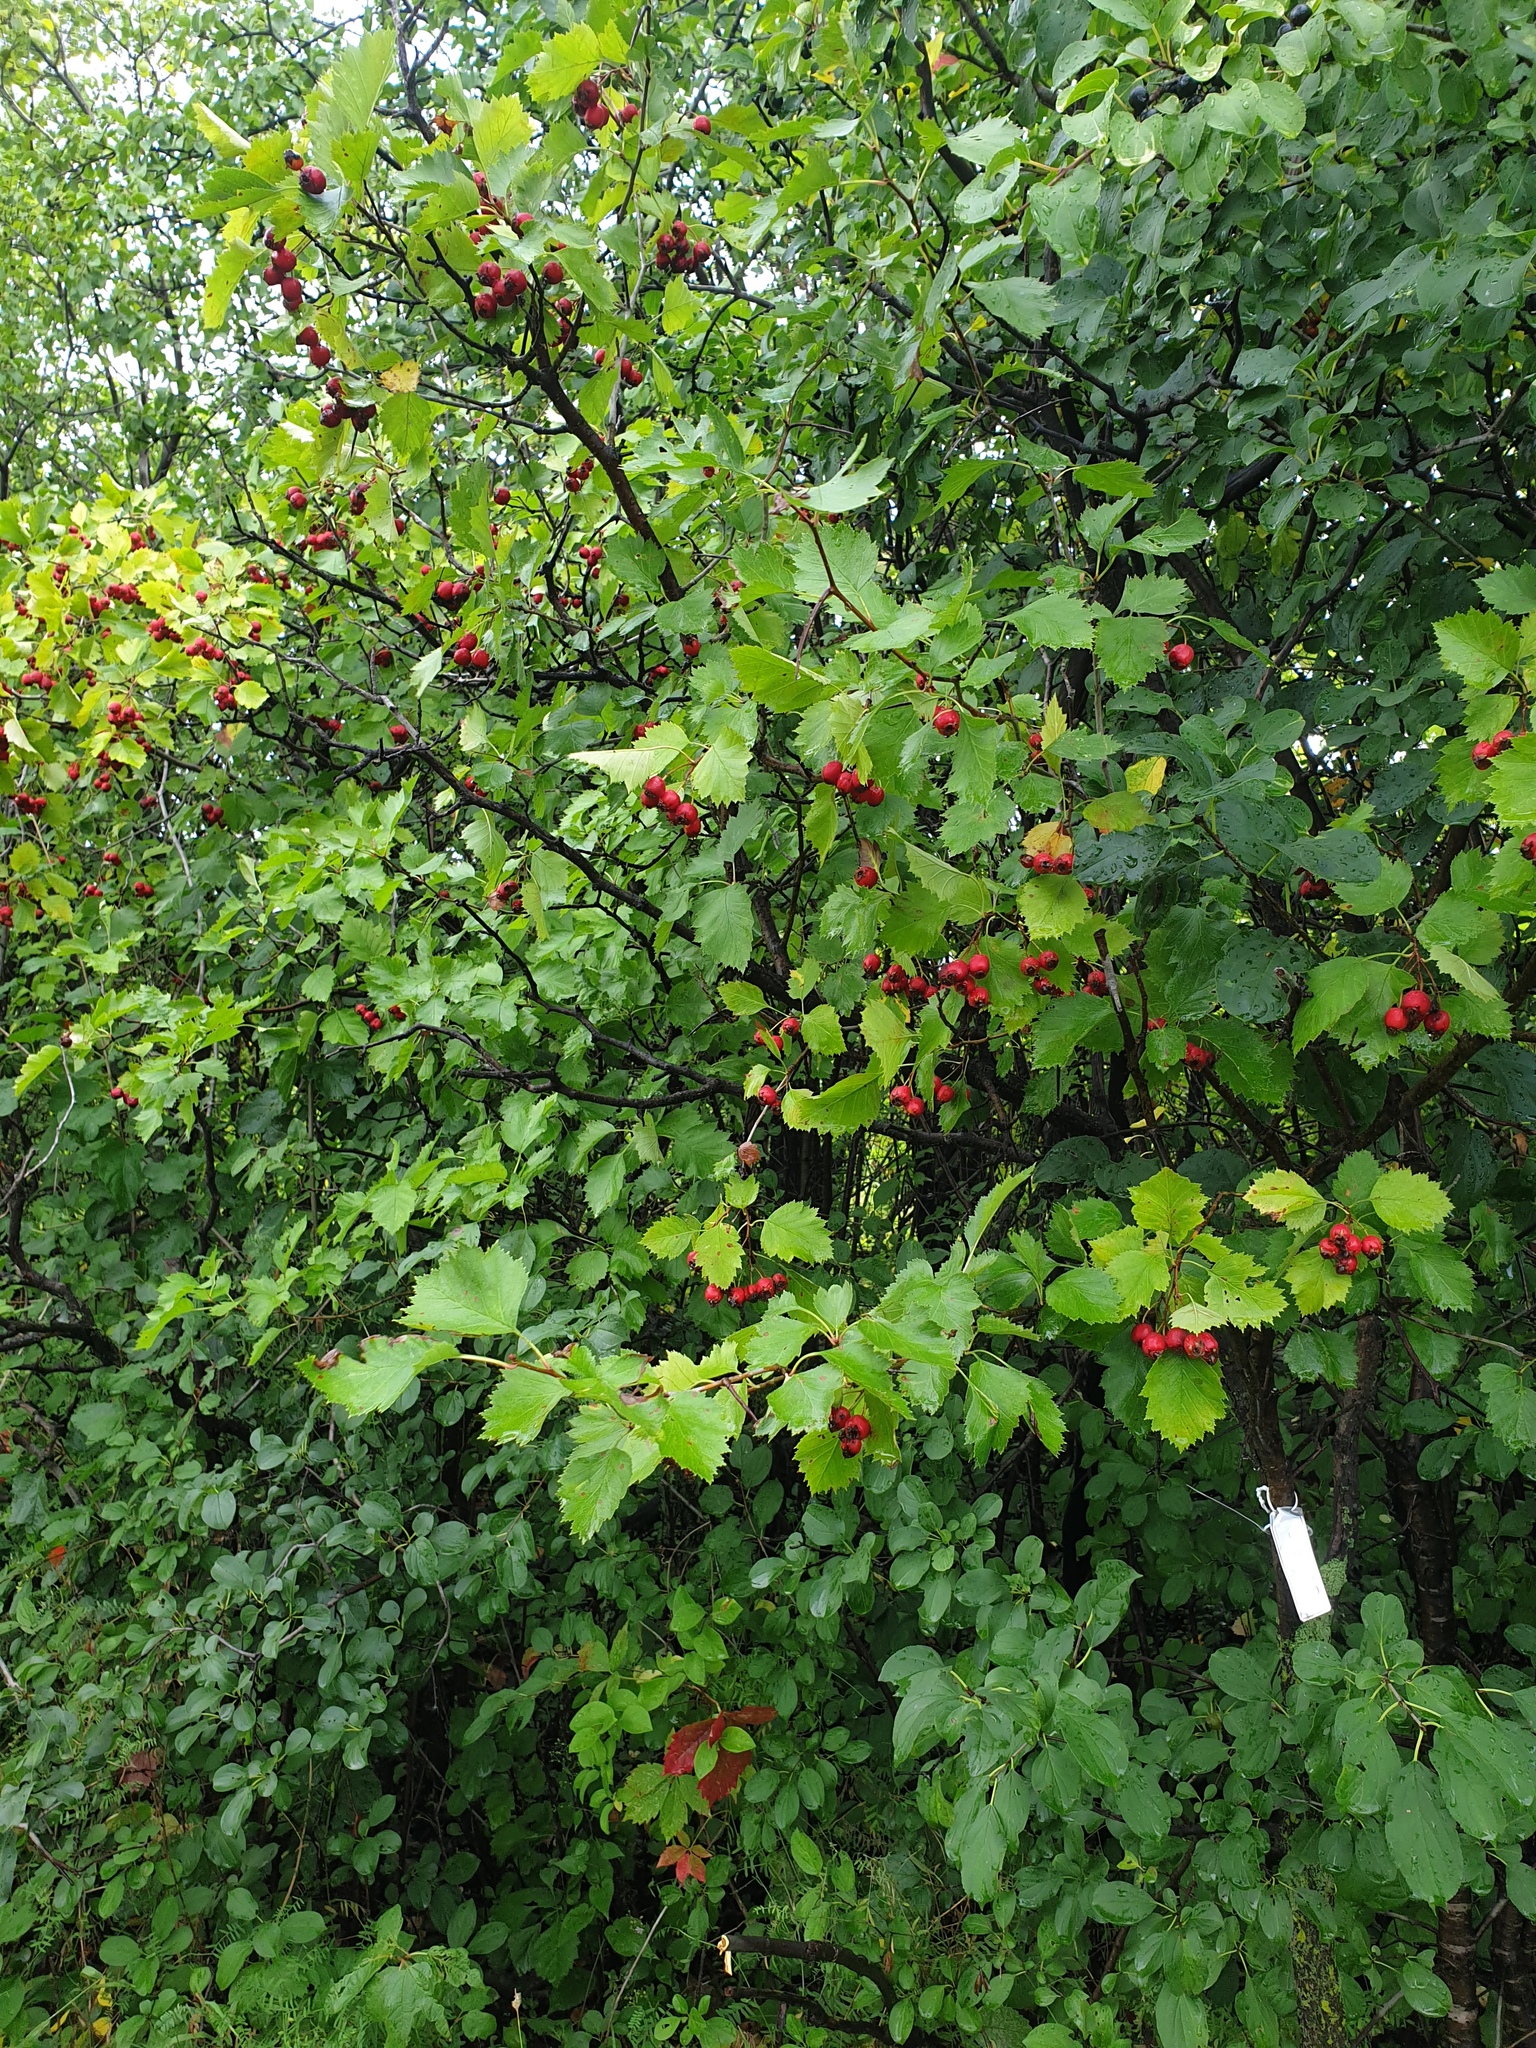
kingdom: Plantae
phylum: Tracheophyta
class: Magnoliopsida
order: Rosales
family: Rosaceae
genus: Crataegus
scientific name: Crataegus irrasa
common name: Unshorn hawthorn
